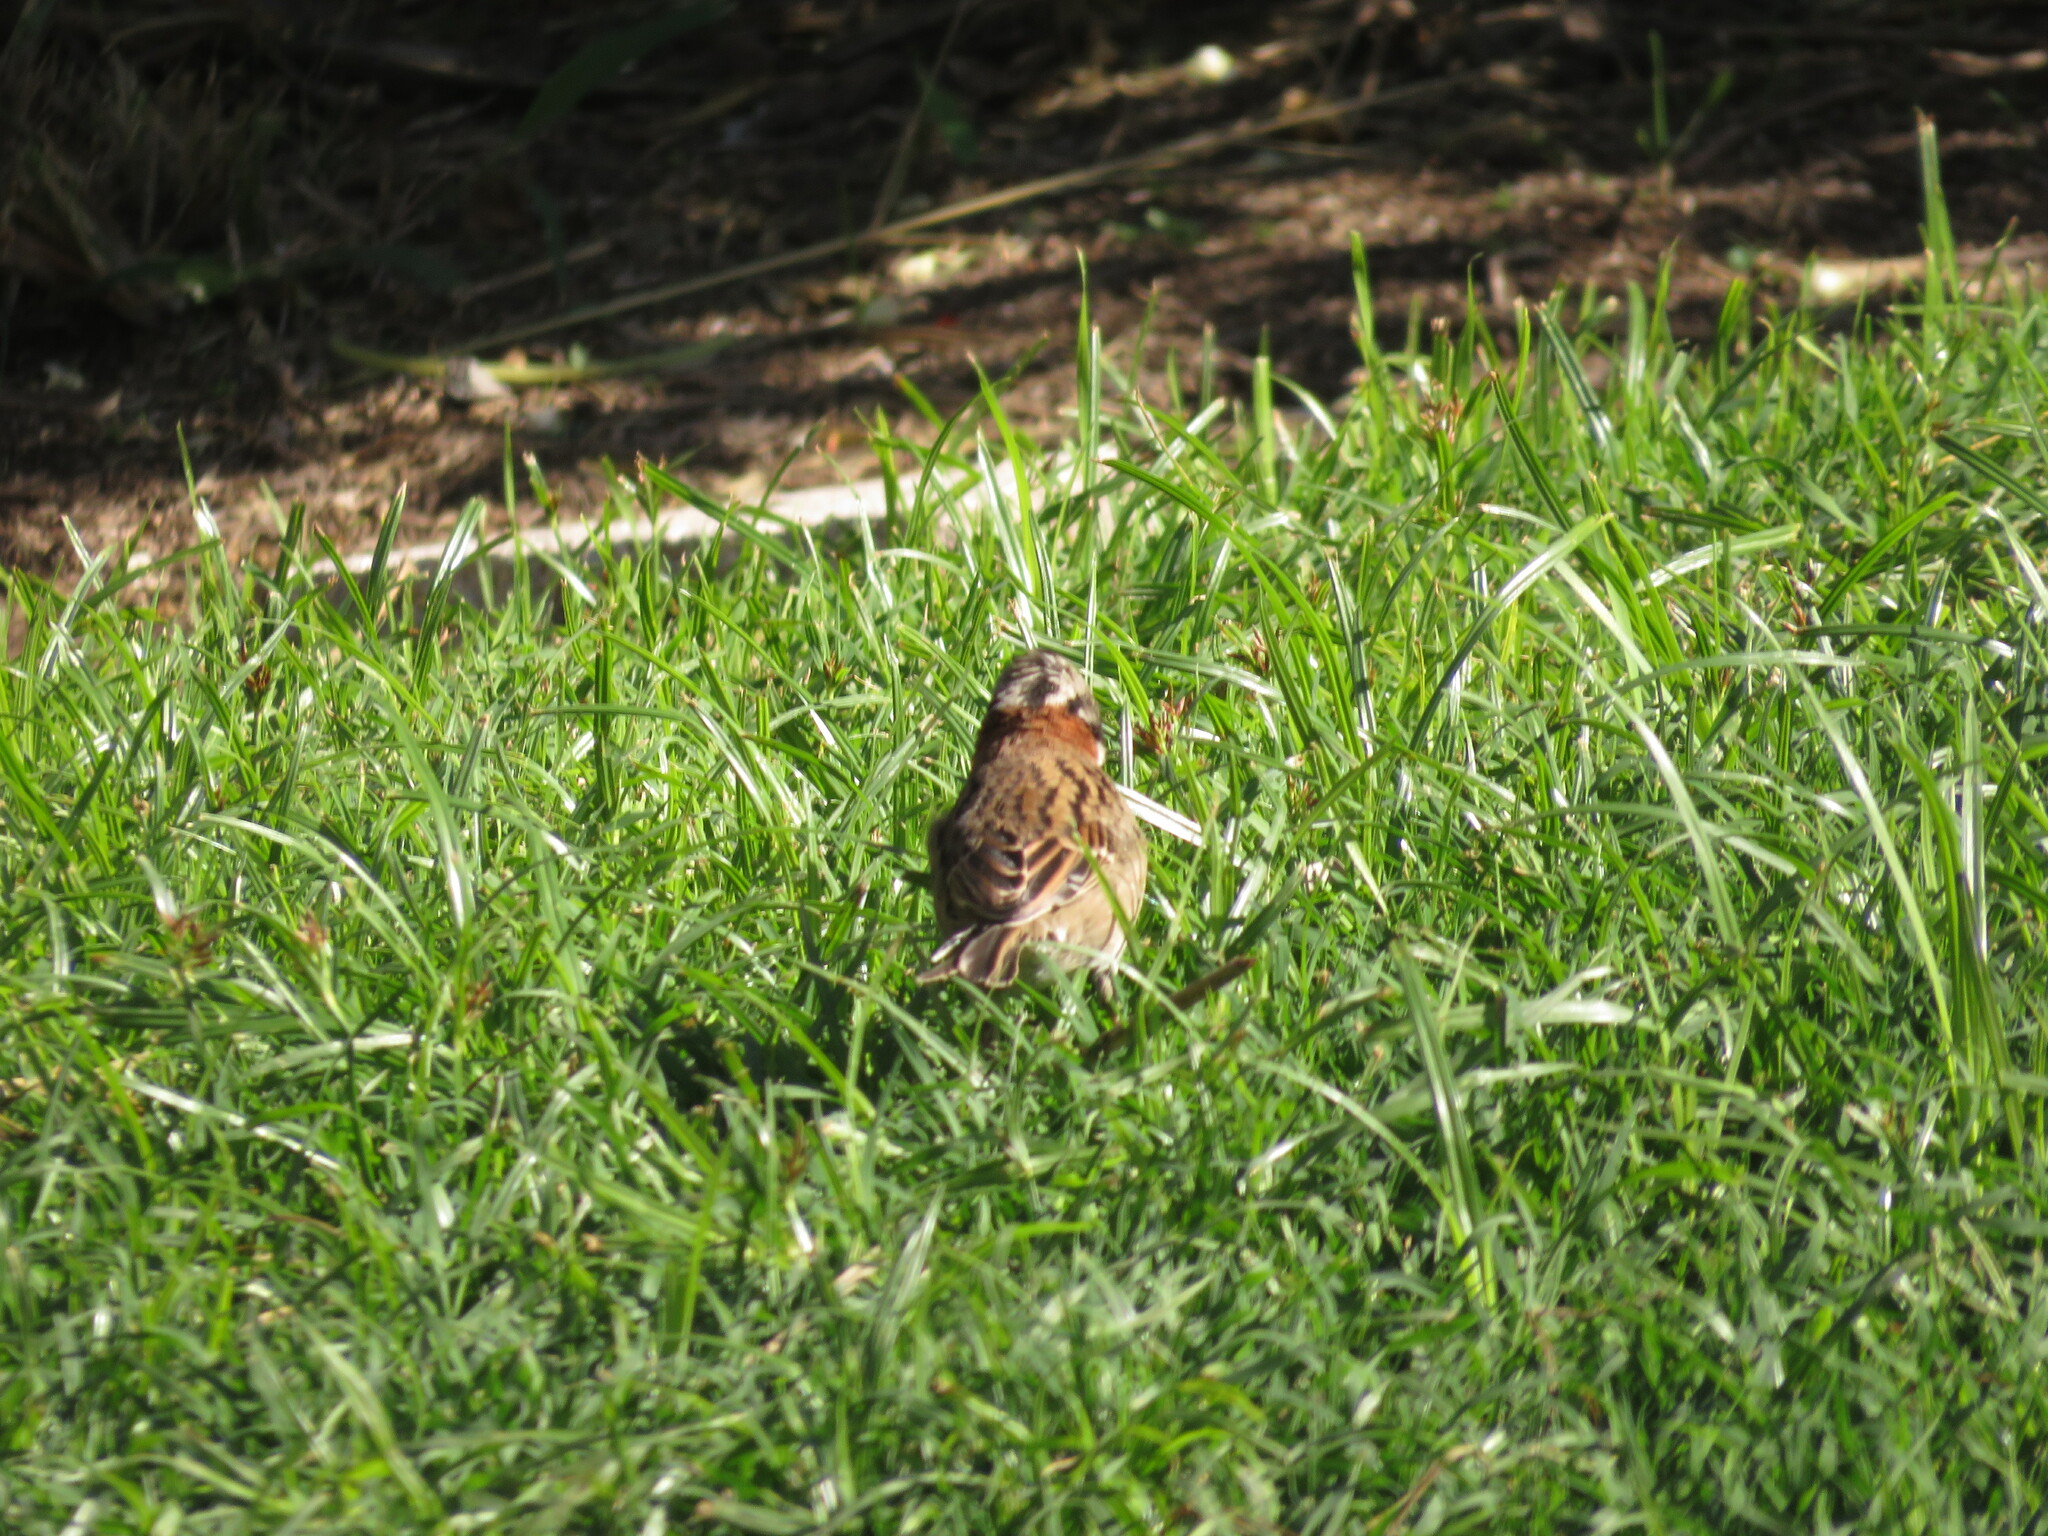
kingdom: Animalia
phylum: Chordata
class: Aves
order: Passeriformes
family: Passerellidae
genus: Zonotrichia
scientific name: Zonotrichia capensis
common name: Rufous-collared sparrow
